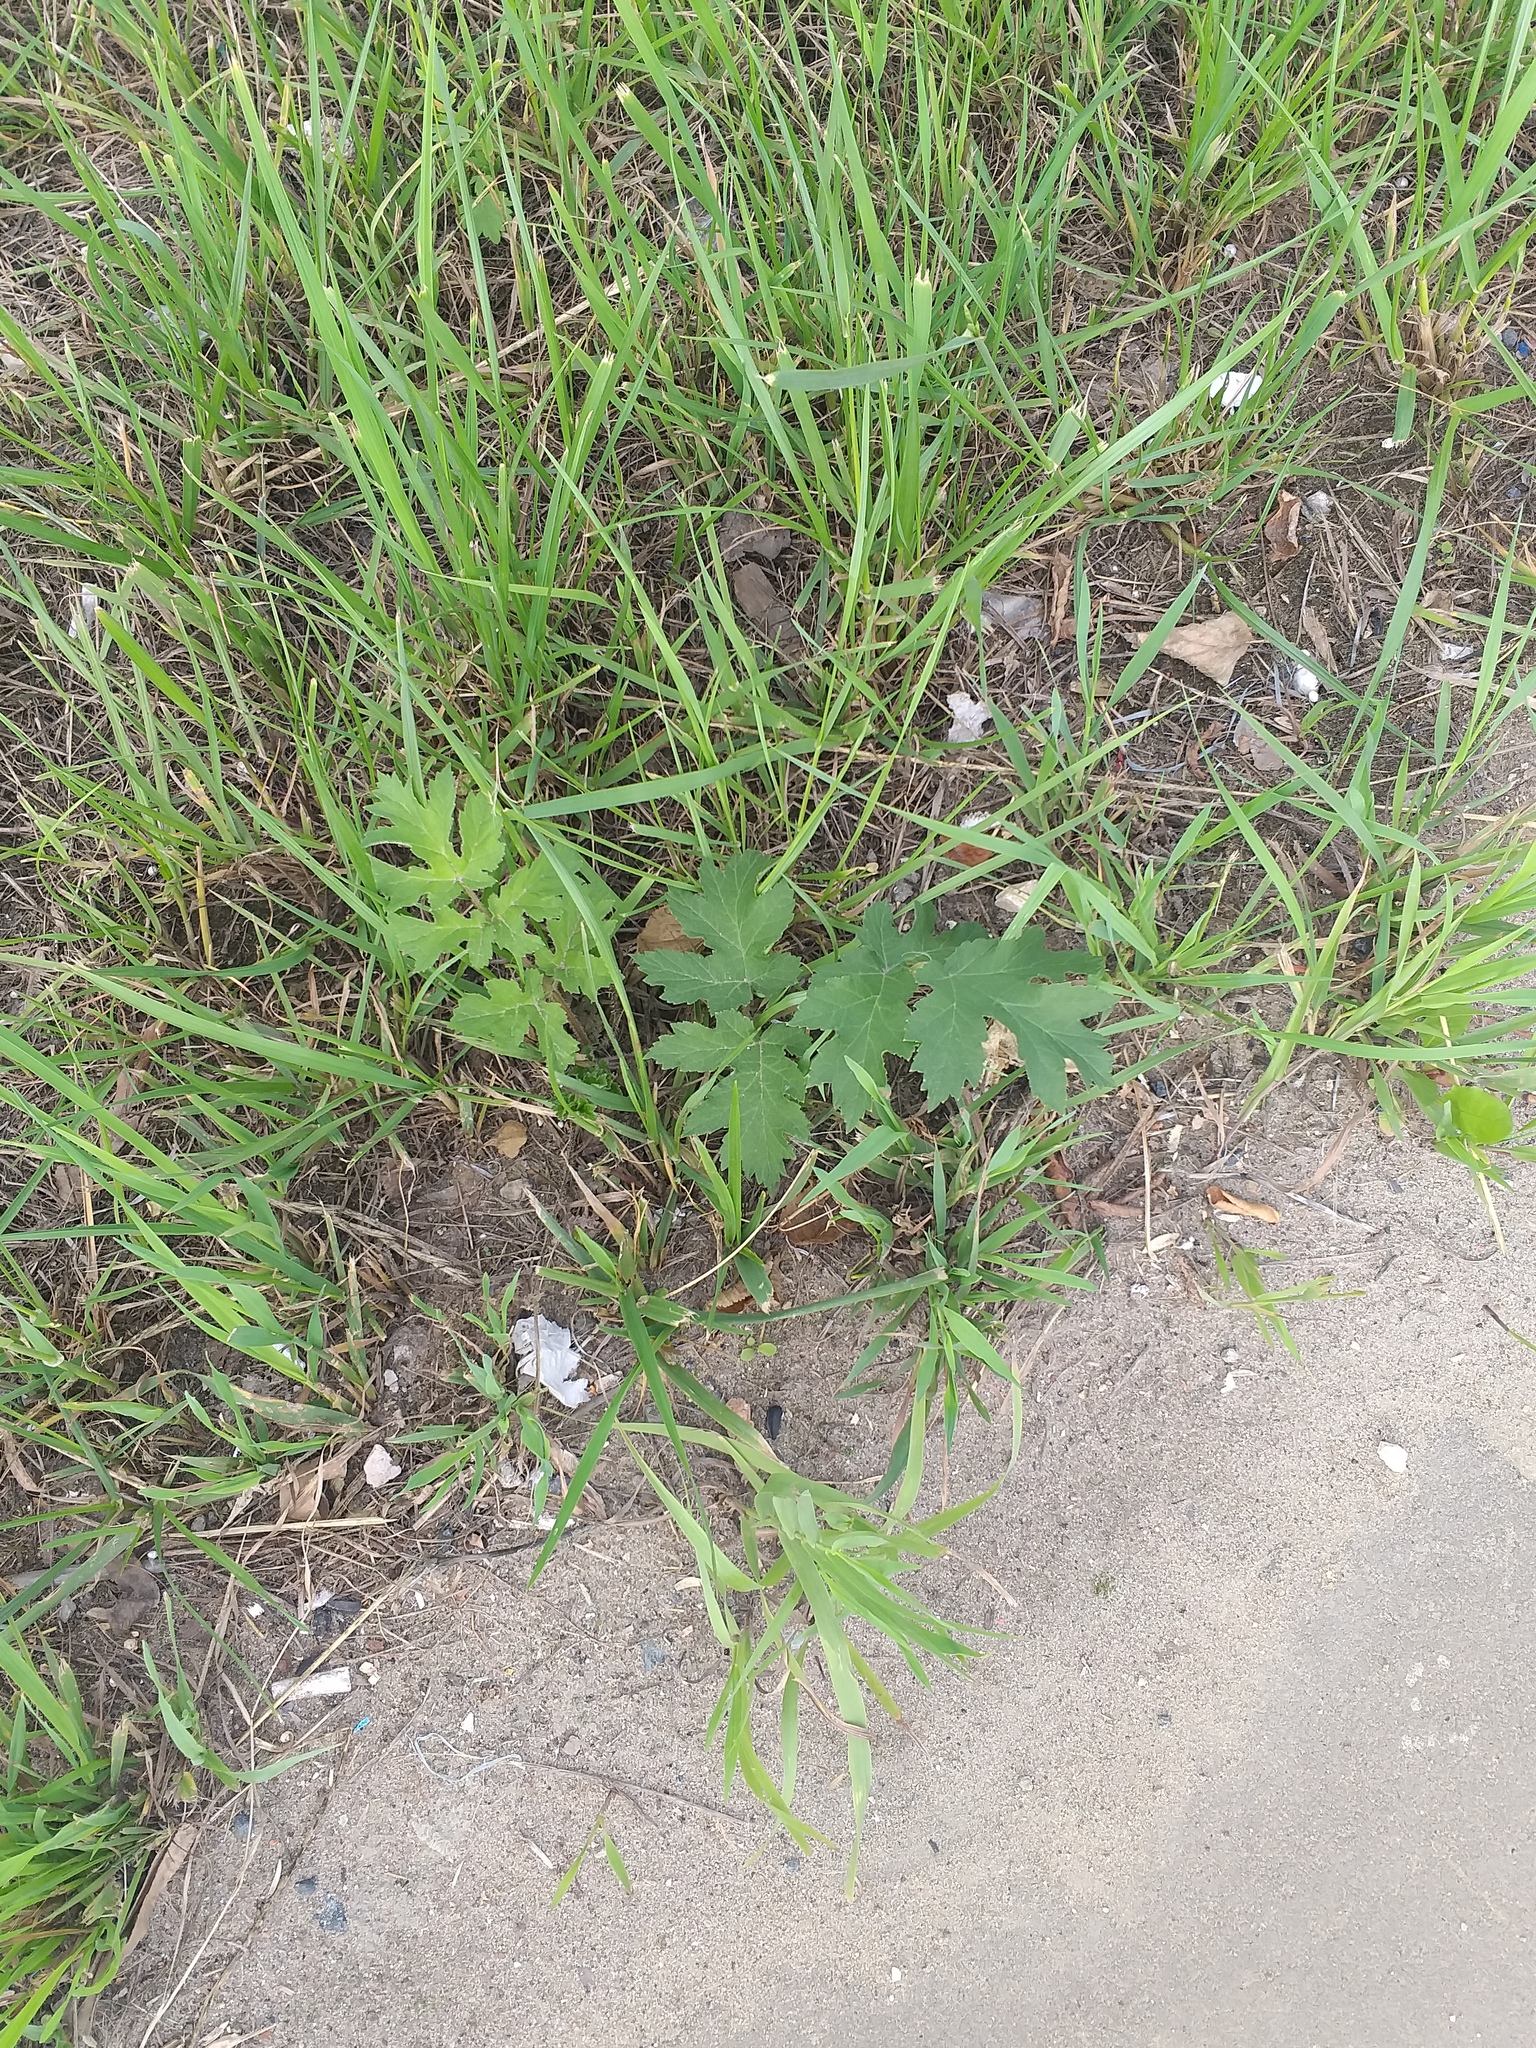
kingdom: Plantae
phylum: Tracheophyta
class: Magnoliopsida
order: Apiales
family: Apiaceae
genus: Heracleum
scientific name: Heracleum sphondylium
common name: Hogweed
